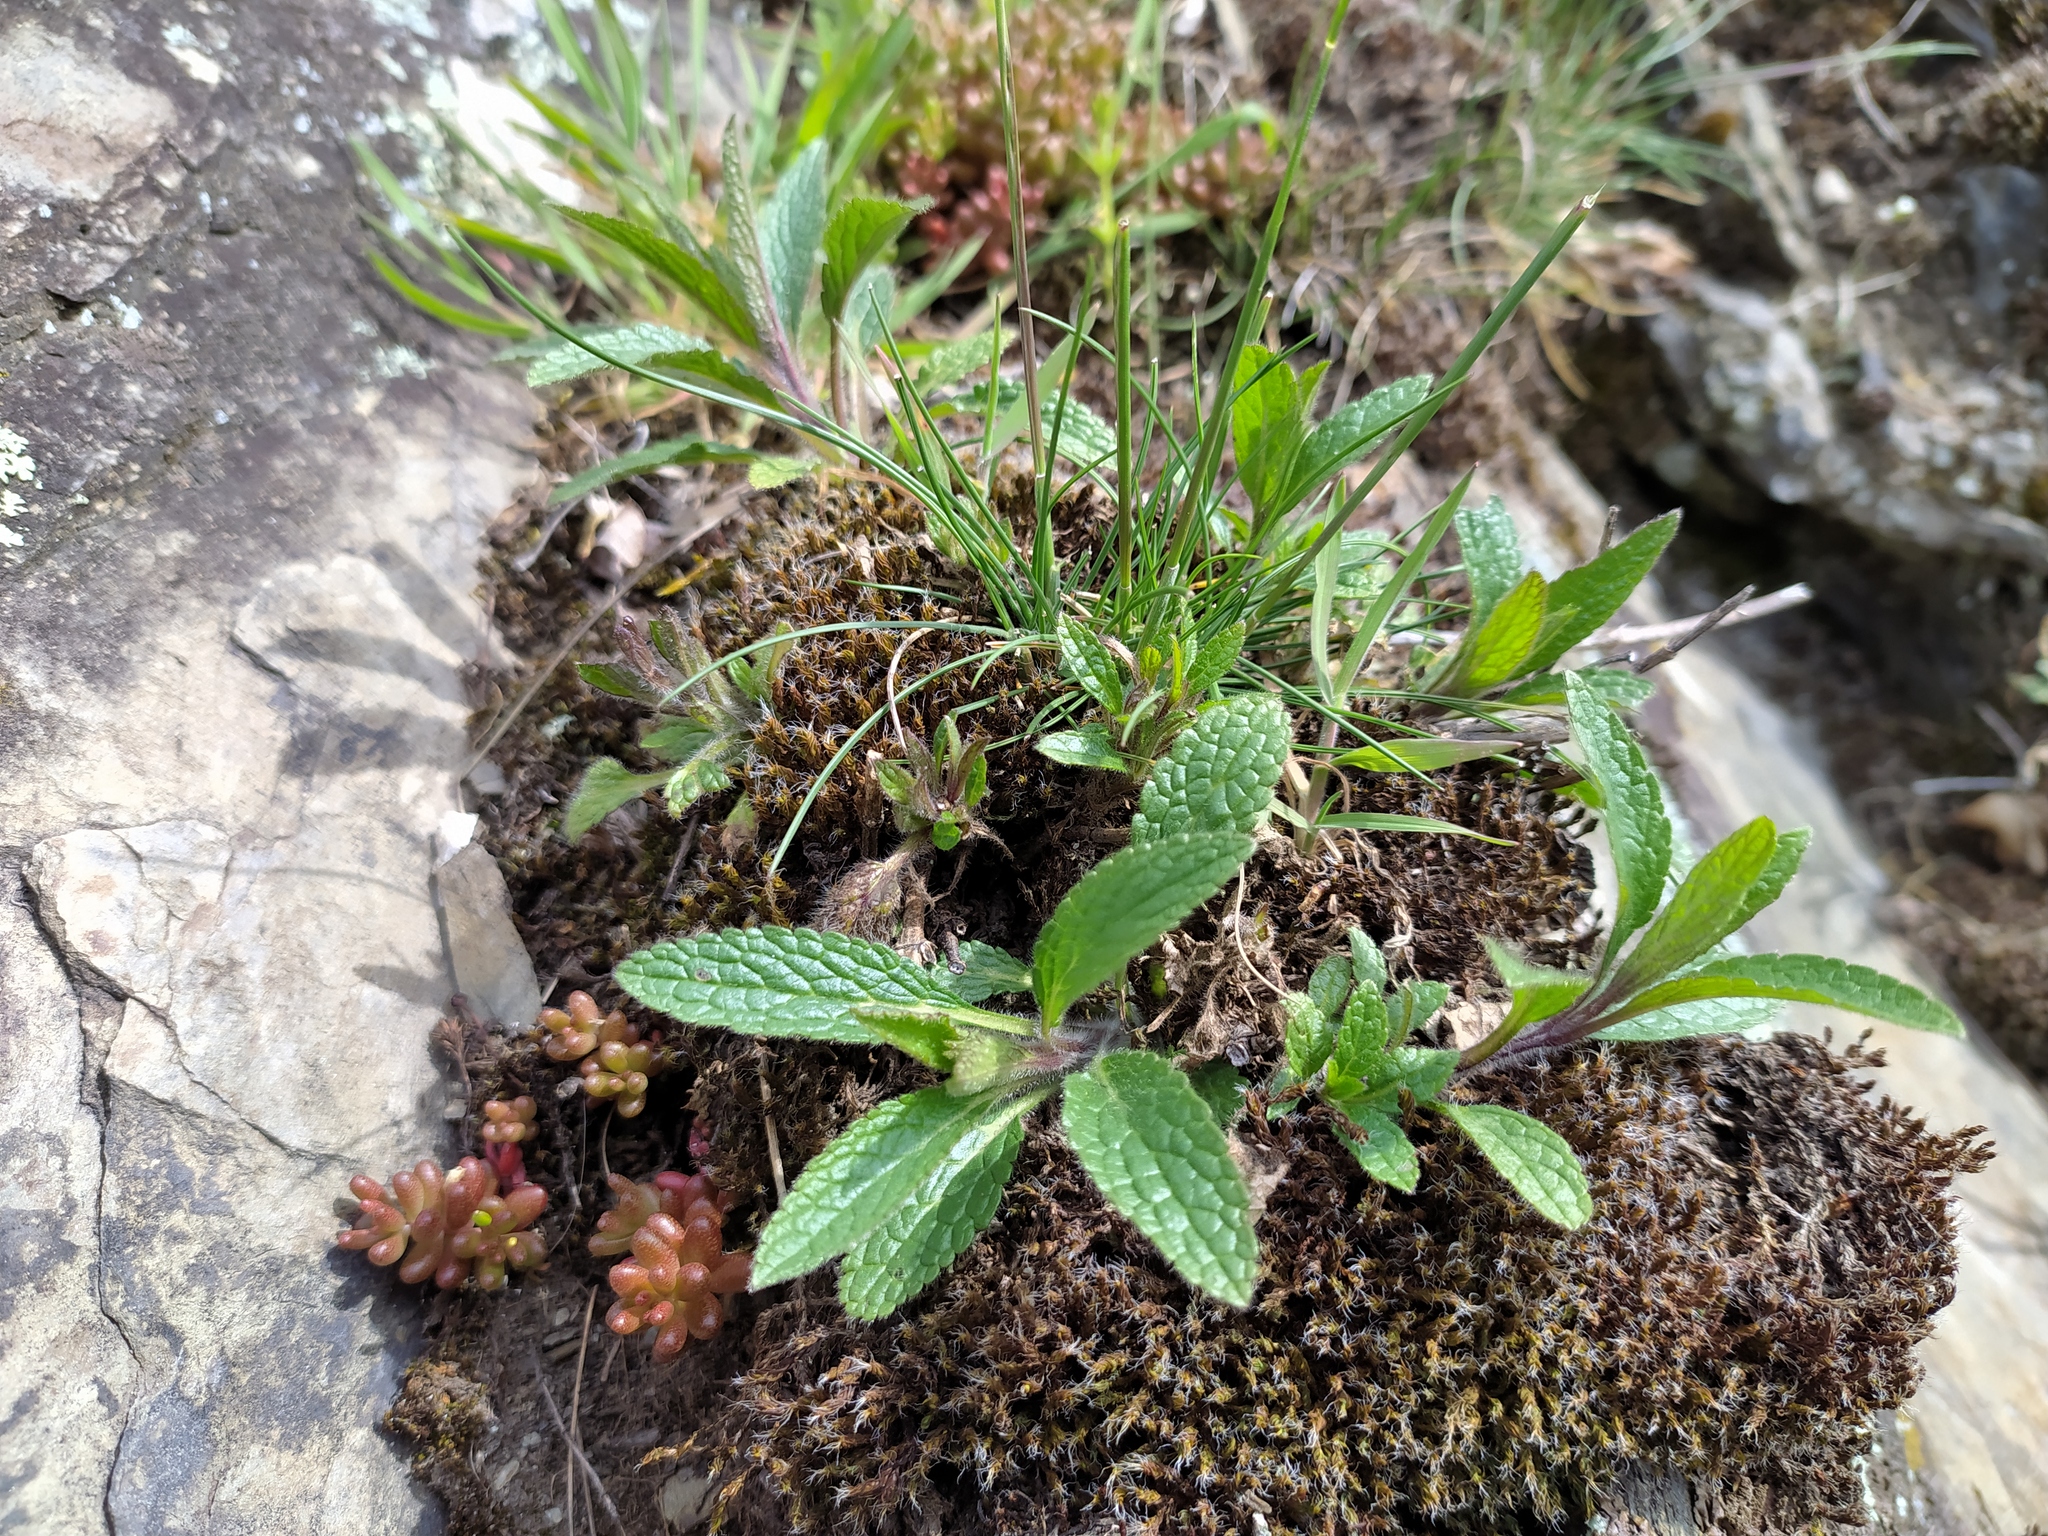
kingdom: Plantae
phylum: Tracheophyta
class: Magnoliopsida
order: Lamiales
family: Lamiaceae
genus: Stachys
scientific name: Stachys recta
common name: Perennial yellow-woundwort
